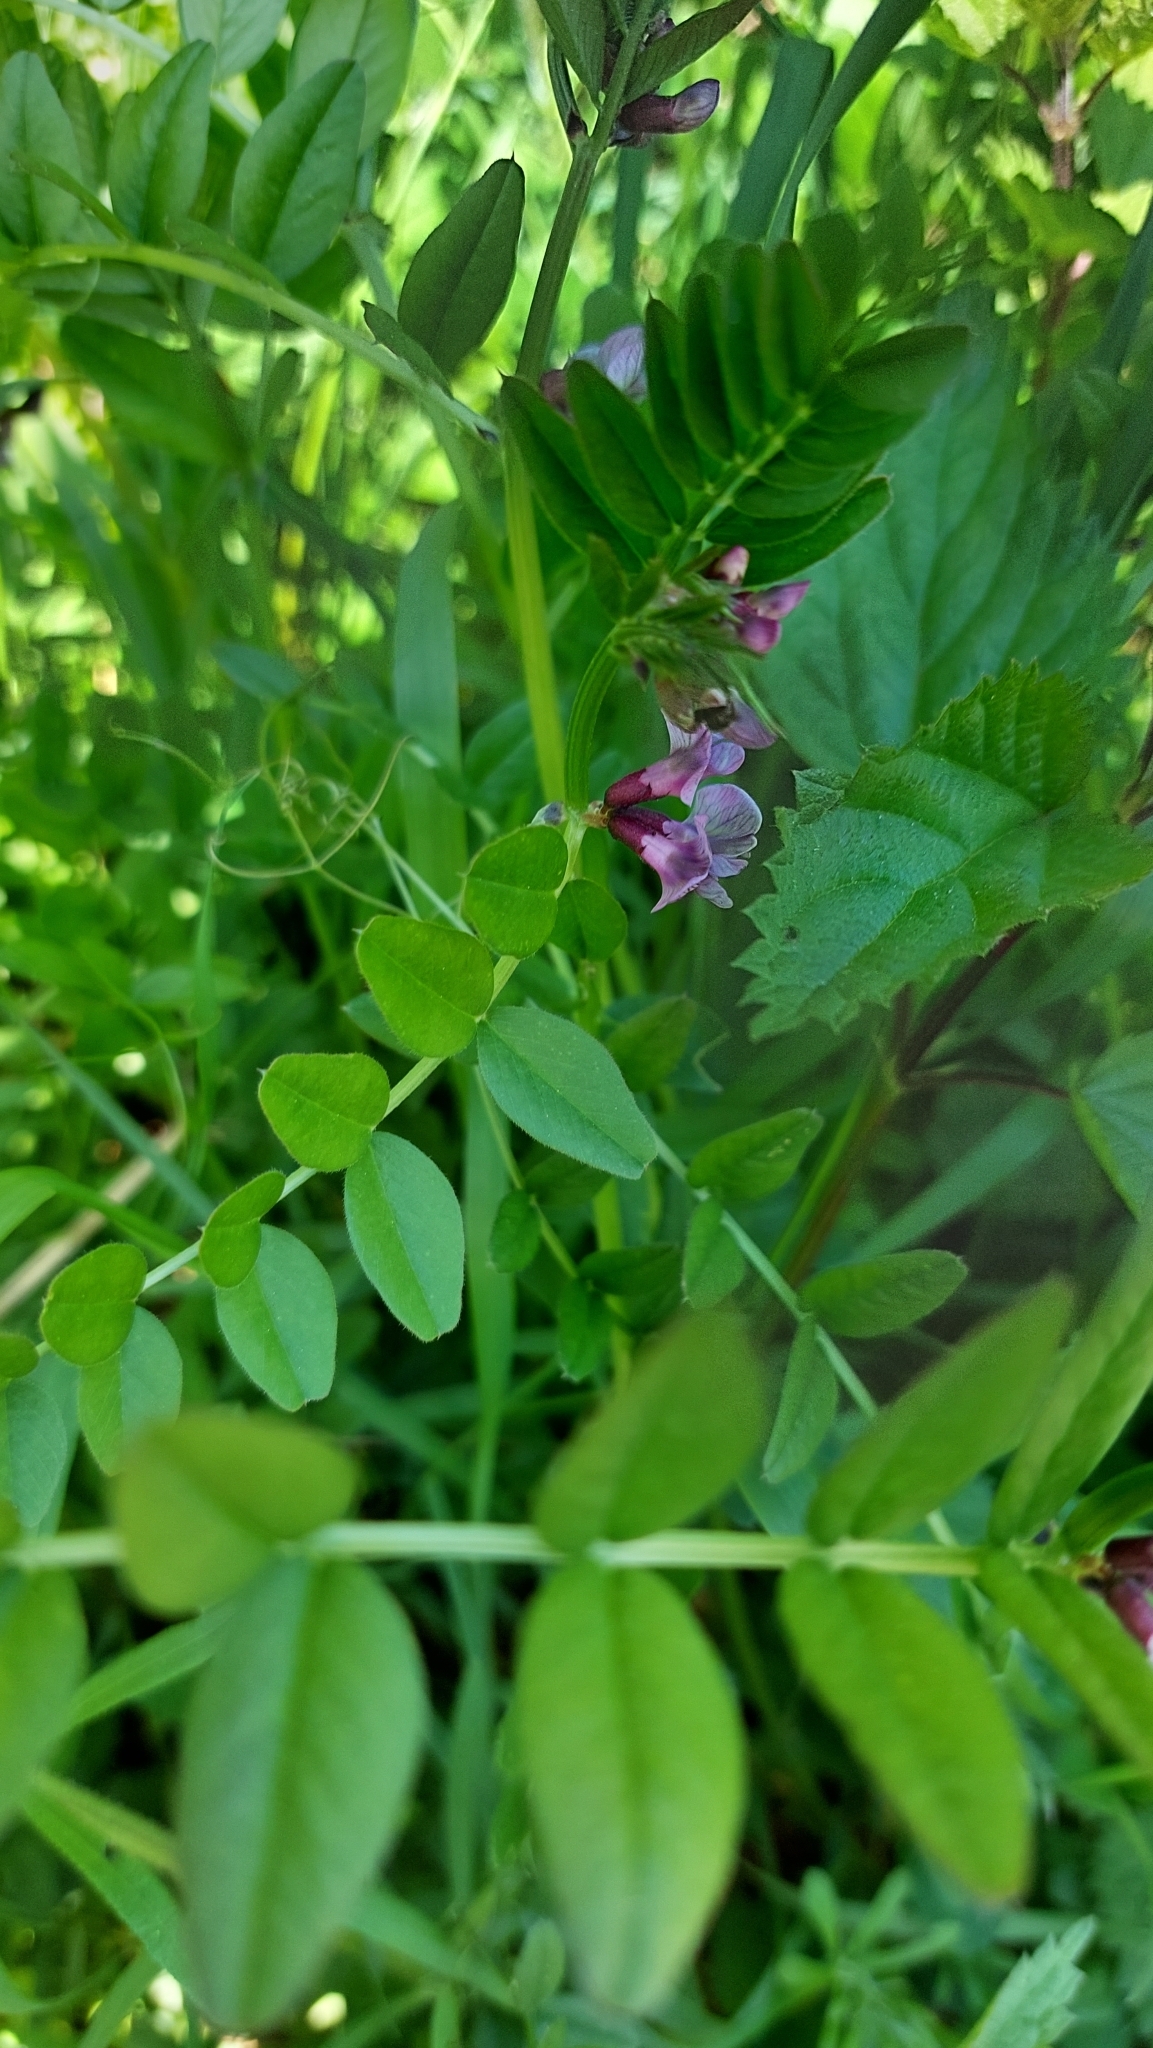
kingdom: Plantae
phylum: Tracheophyta
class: Magnoliopsida
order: Fabales
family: Fabaceae
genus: Vicia
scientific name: Vicia sepium
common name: Bush vetch
